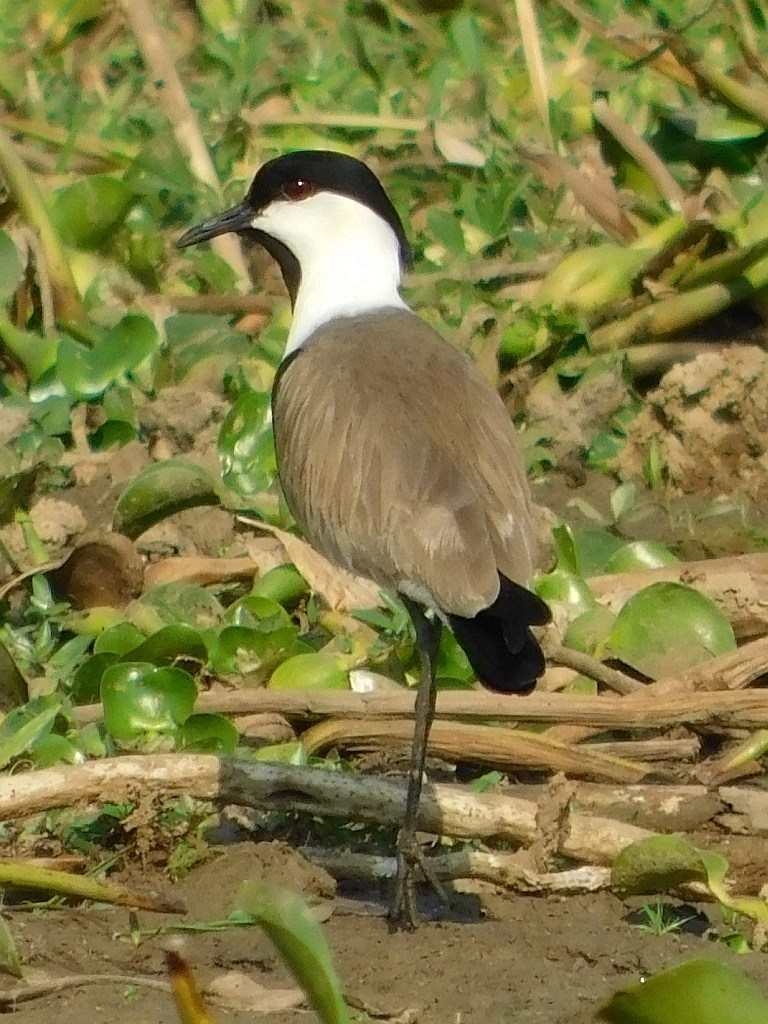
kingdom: Animalia
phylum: Chordata
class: Aves
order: Charadriiformes
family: Charadriidae
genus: Vanellus
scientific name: Vanellus spinosus
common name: Spur-winged lapwing
